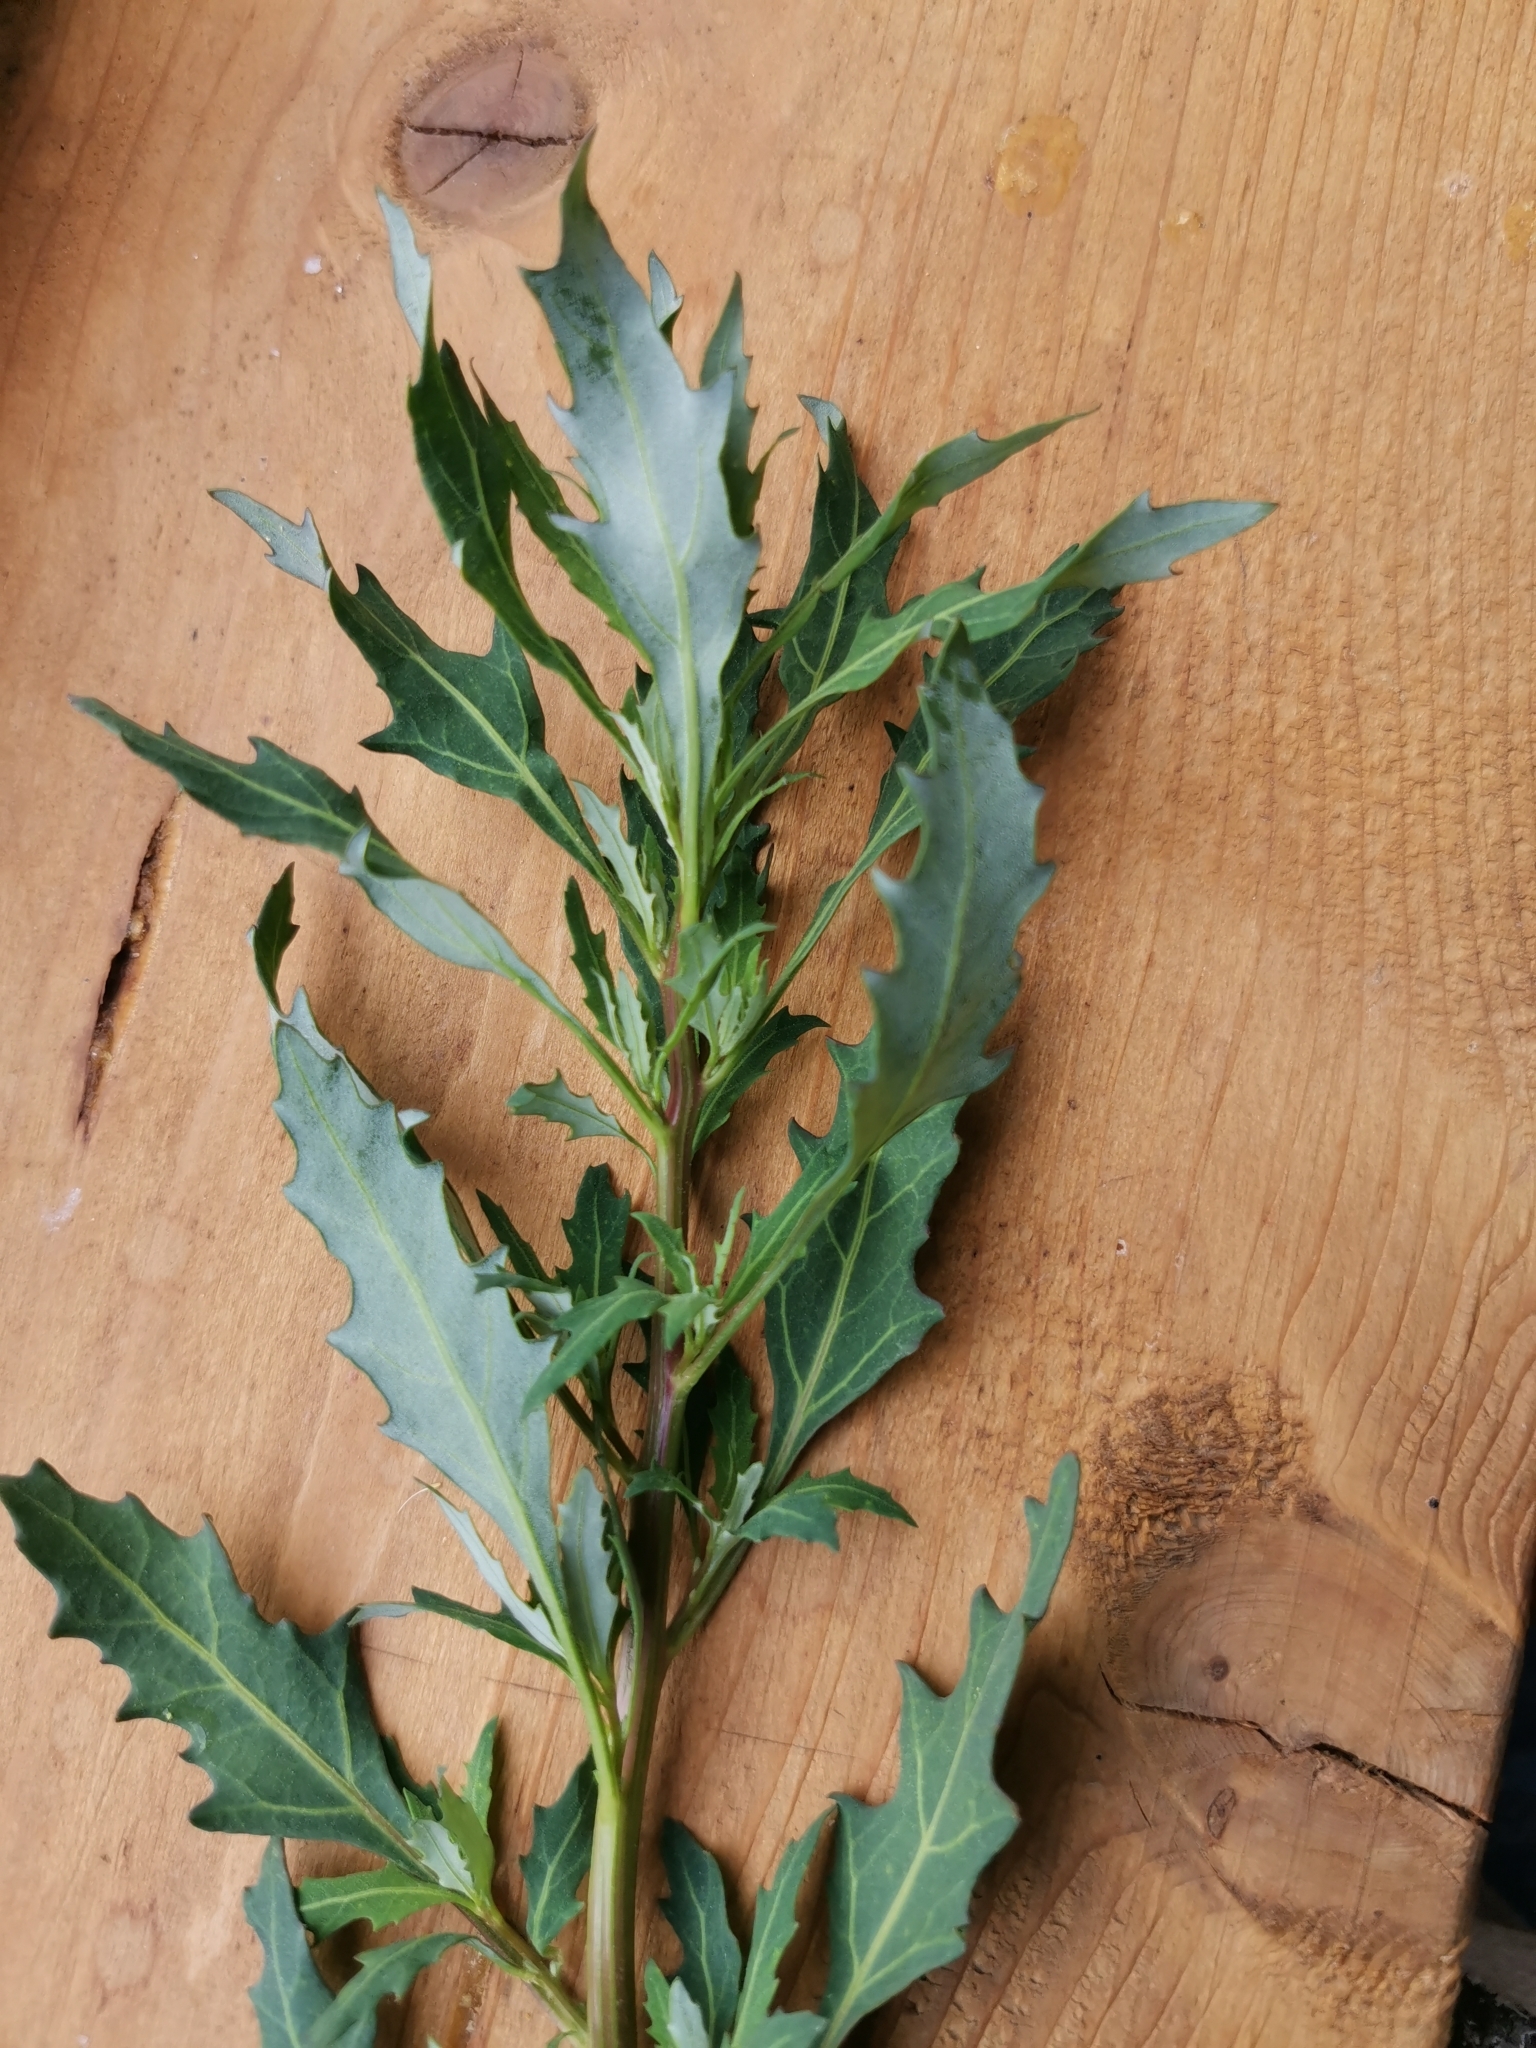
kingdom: Plantae
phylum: Tracheophyta
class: Magnoliopsida
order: Caryophyllales
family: Amaranthaceae
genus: Oxybasis
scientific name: Oxybasis glauca
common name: Glaucous goosefoot
